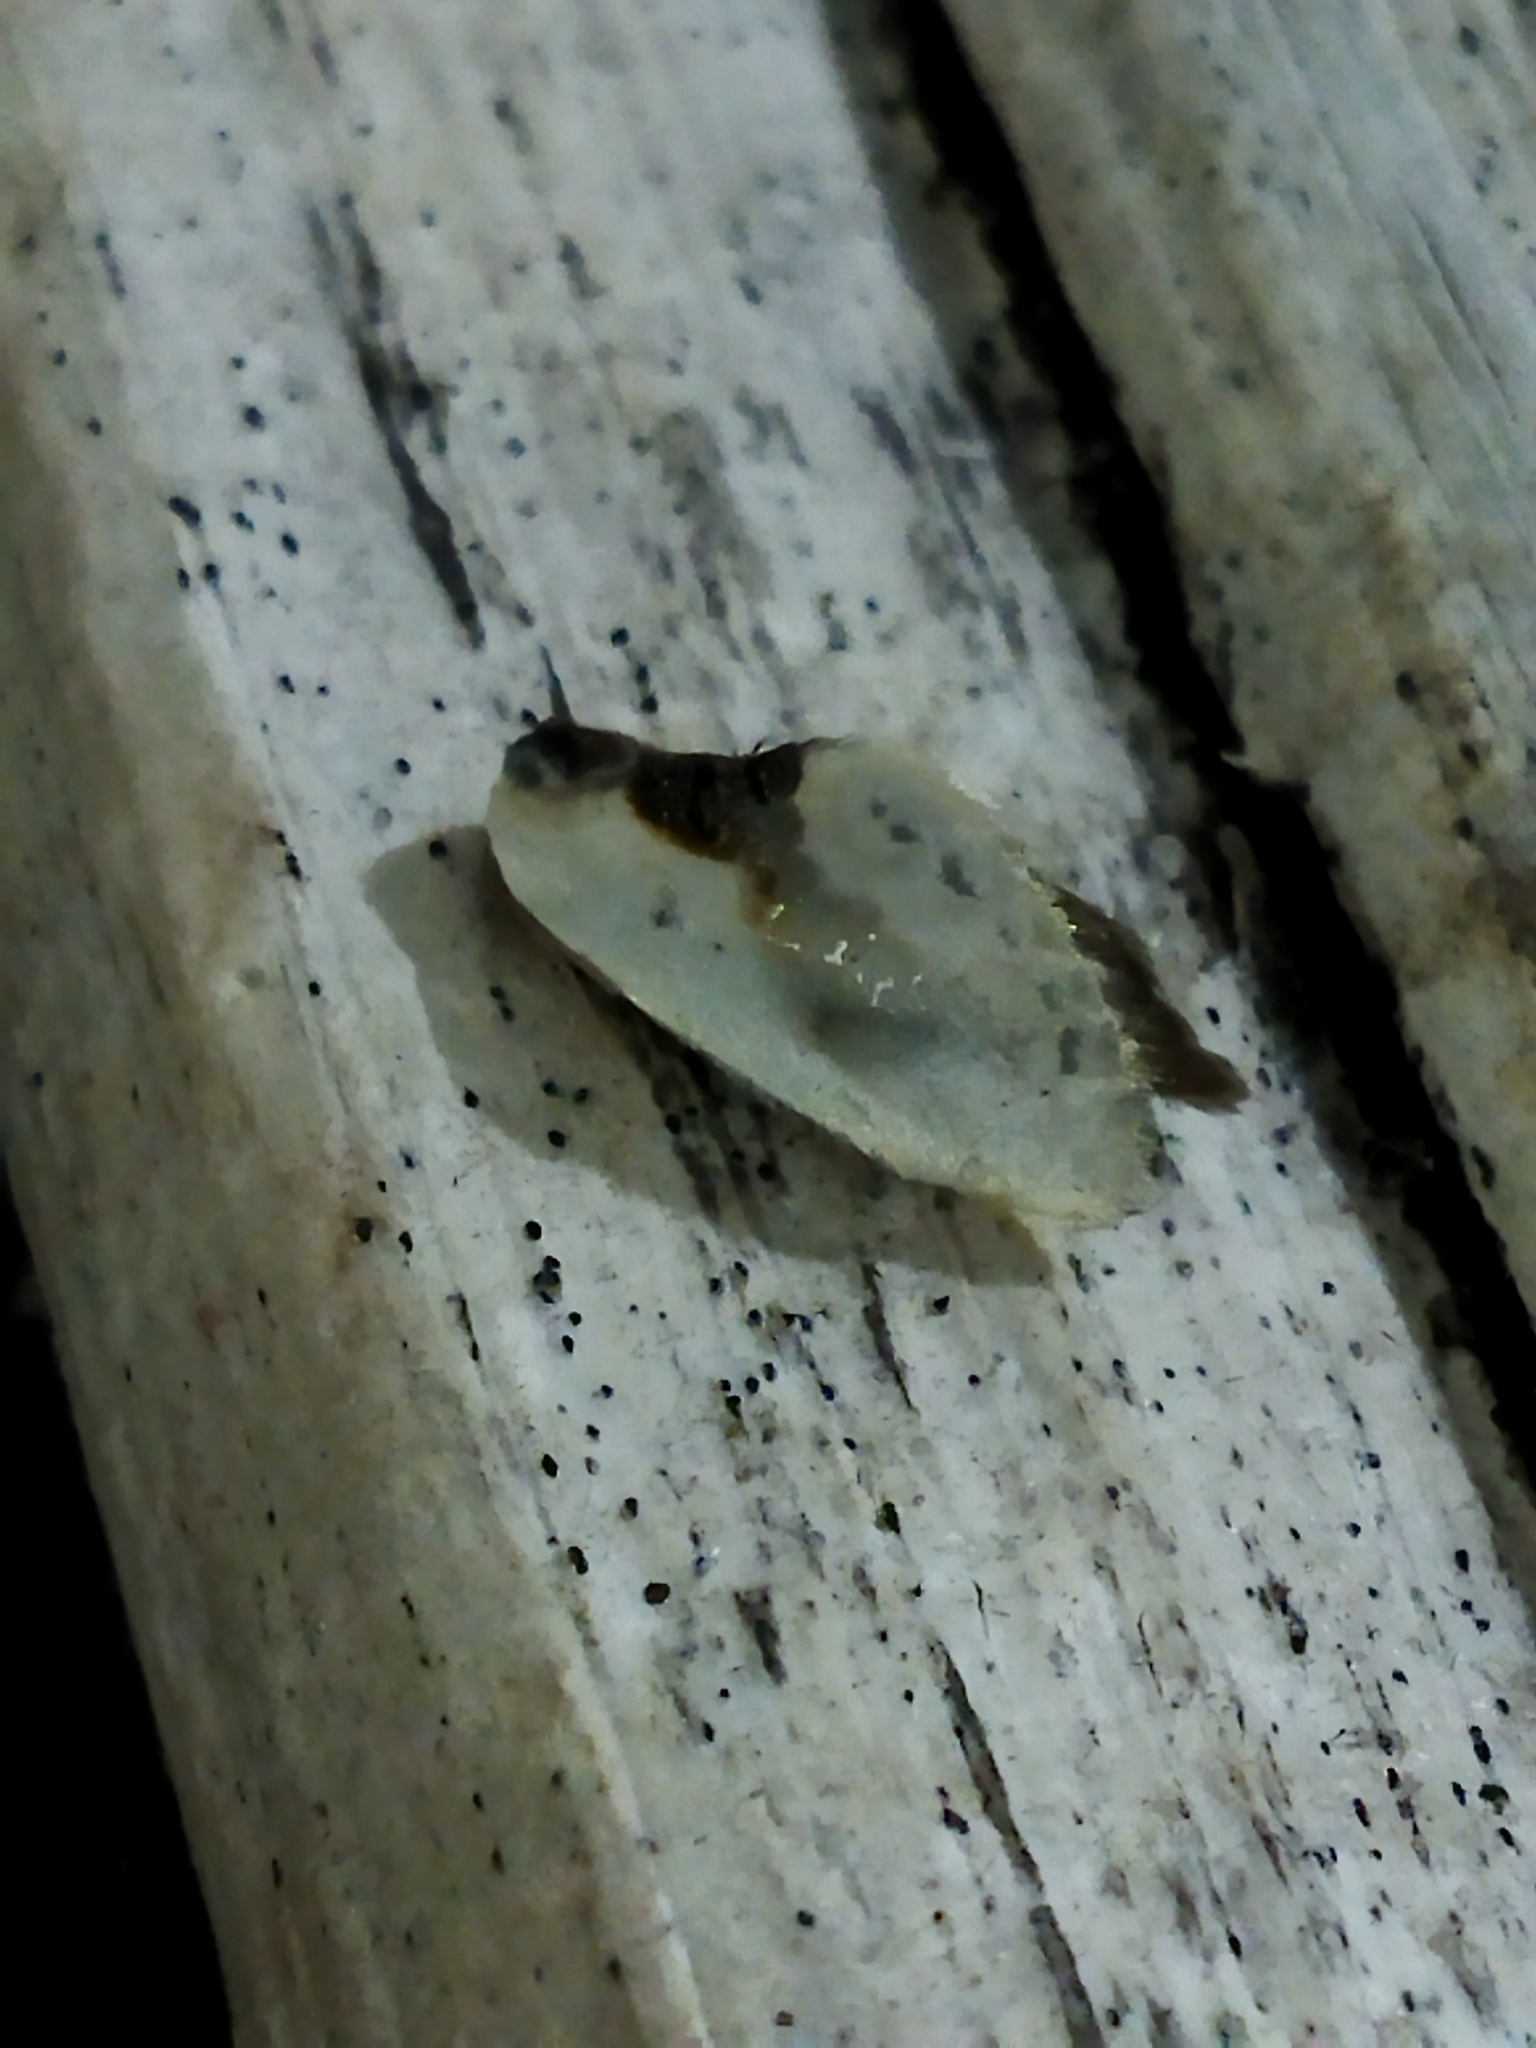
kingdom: Animalia
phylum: Arthropoda
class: Insecta
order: Lepidoptera
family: Drepanidae
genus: Cilix
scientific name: Cilix glaucata
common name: Chinese character
